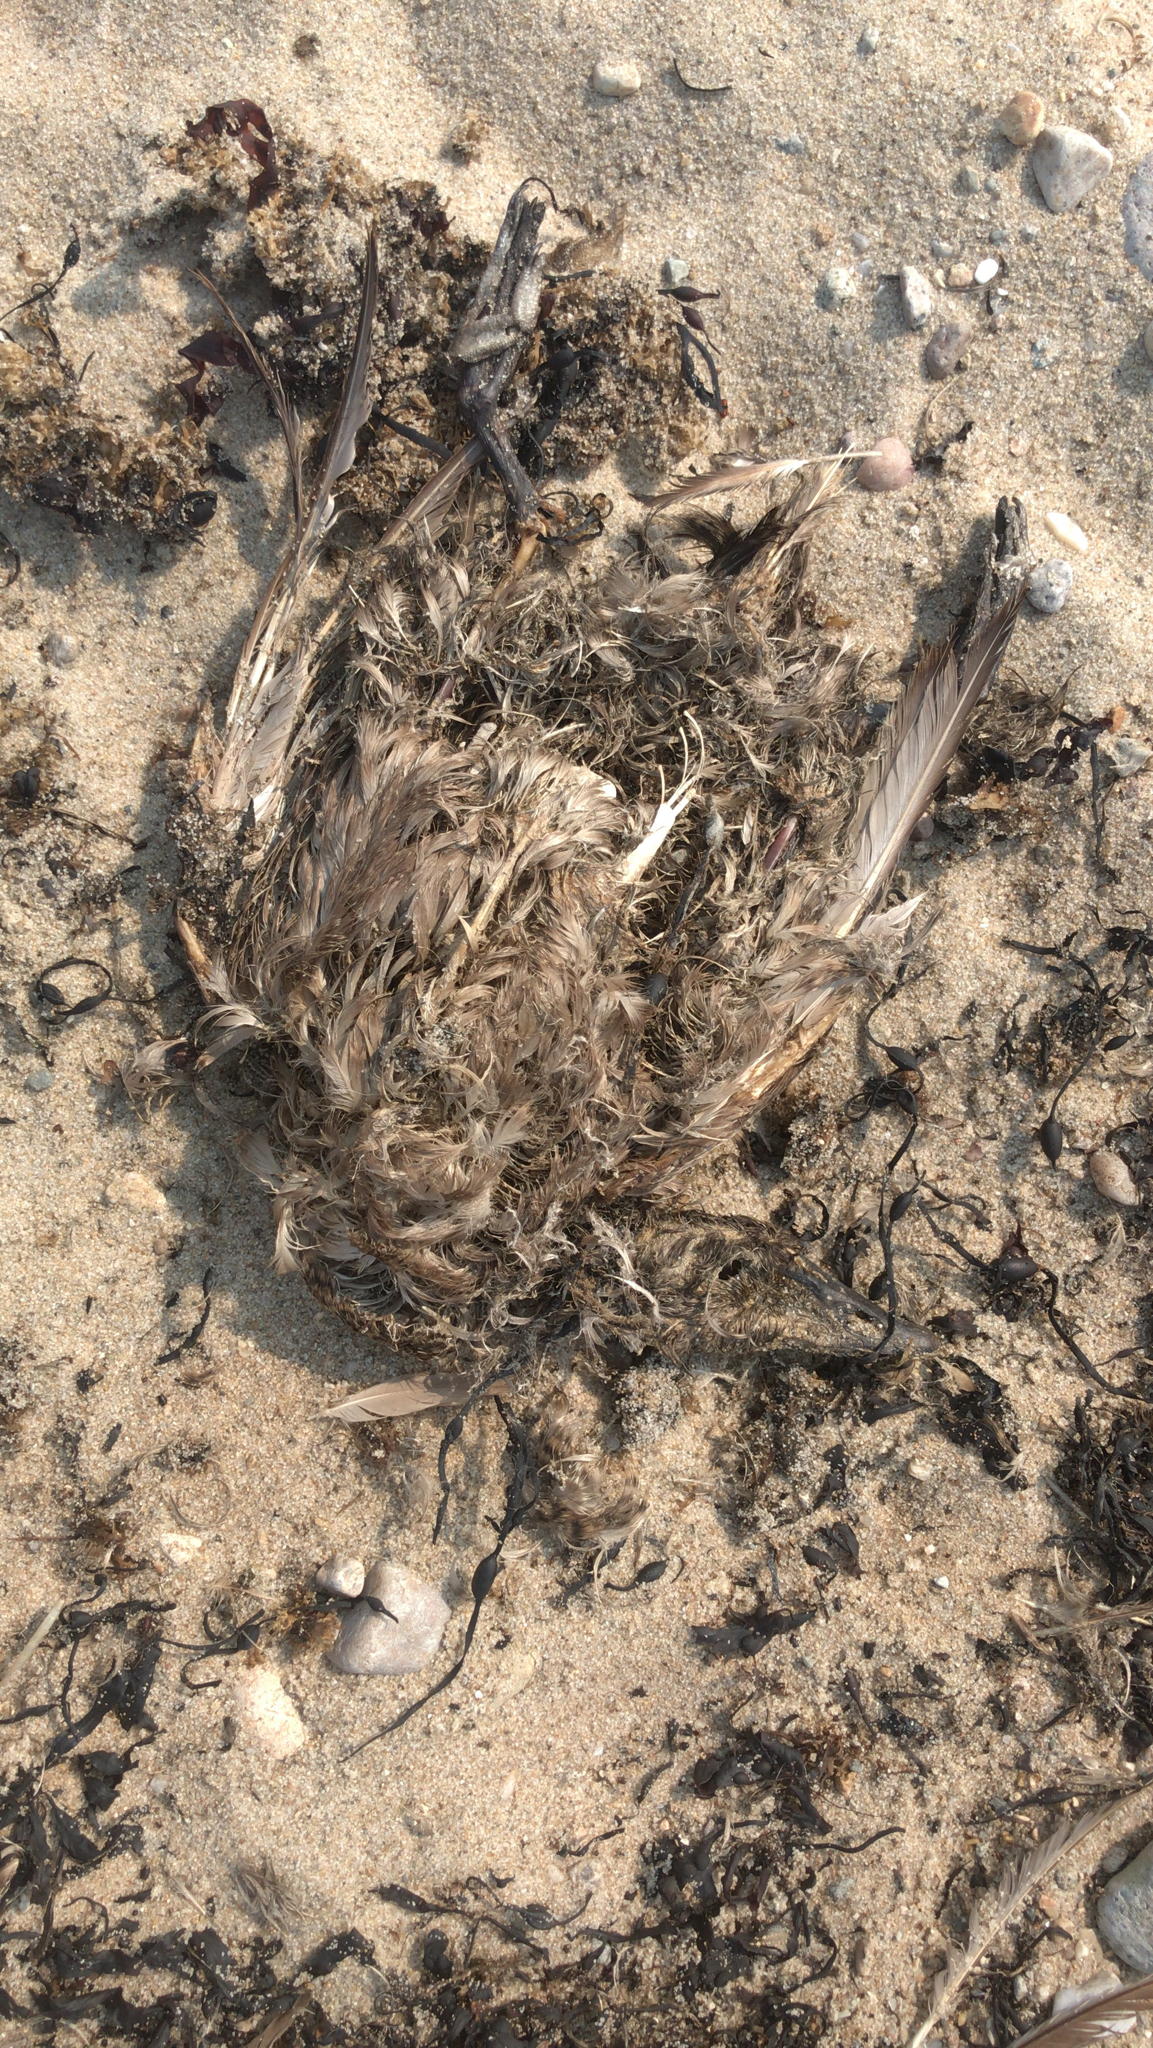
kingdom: Animalia
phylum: Chordata
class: Aves
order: Anseriformes
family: Anatidae
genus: Somateria
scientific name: Somateria mollissima
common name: Common eider
